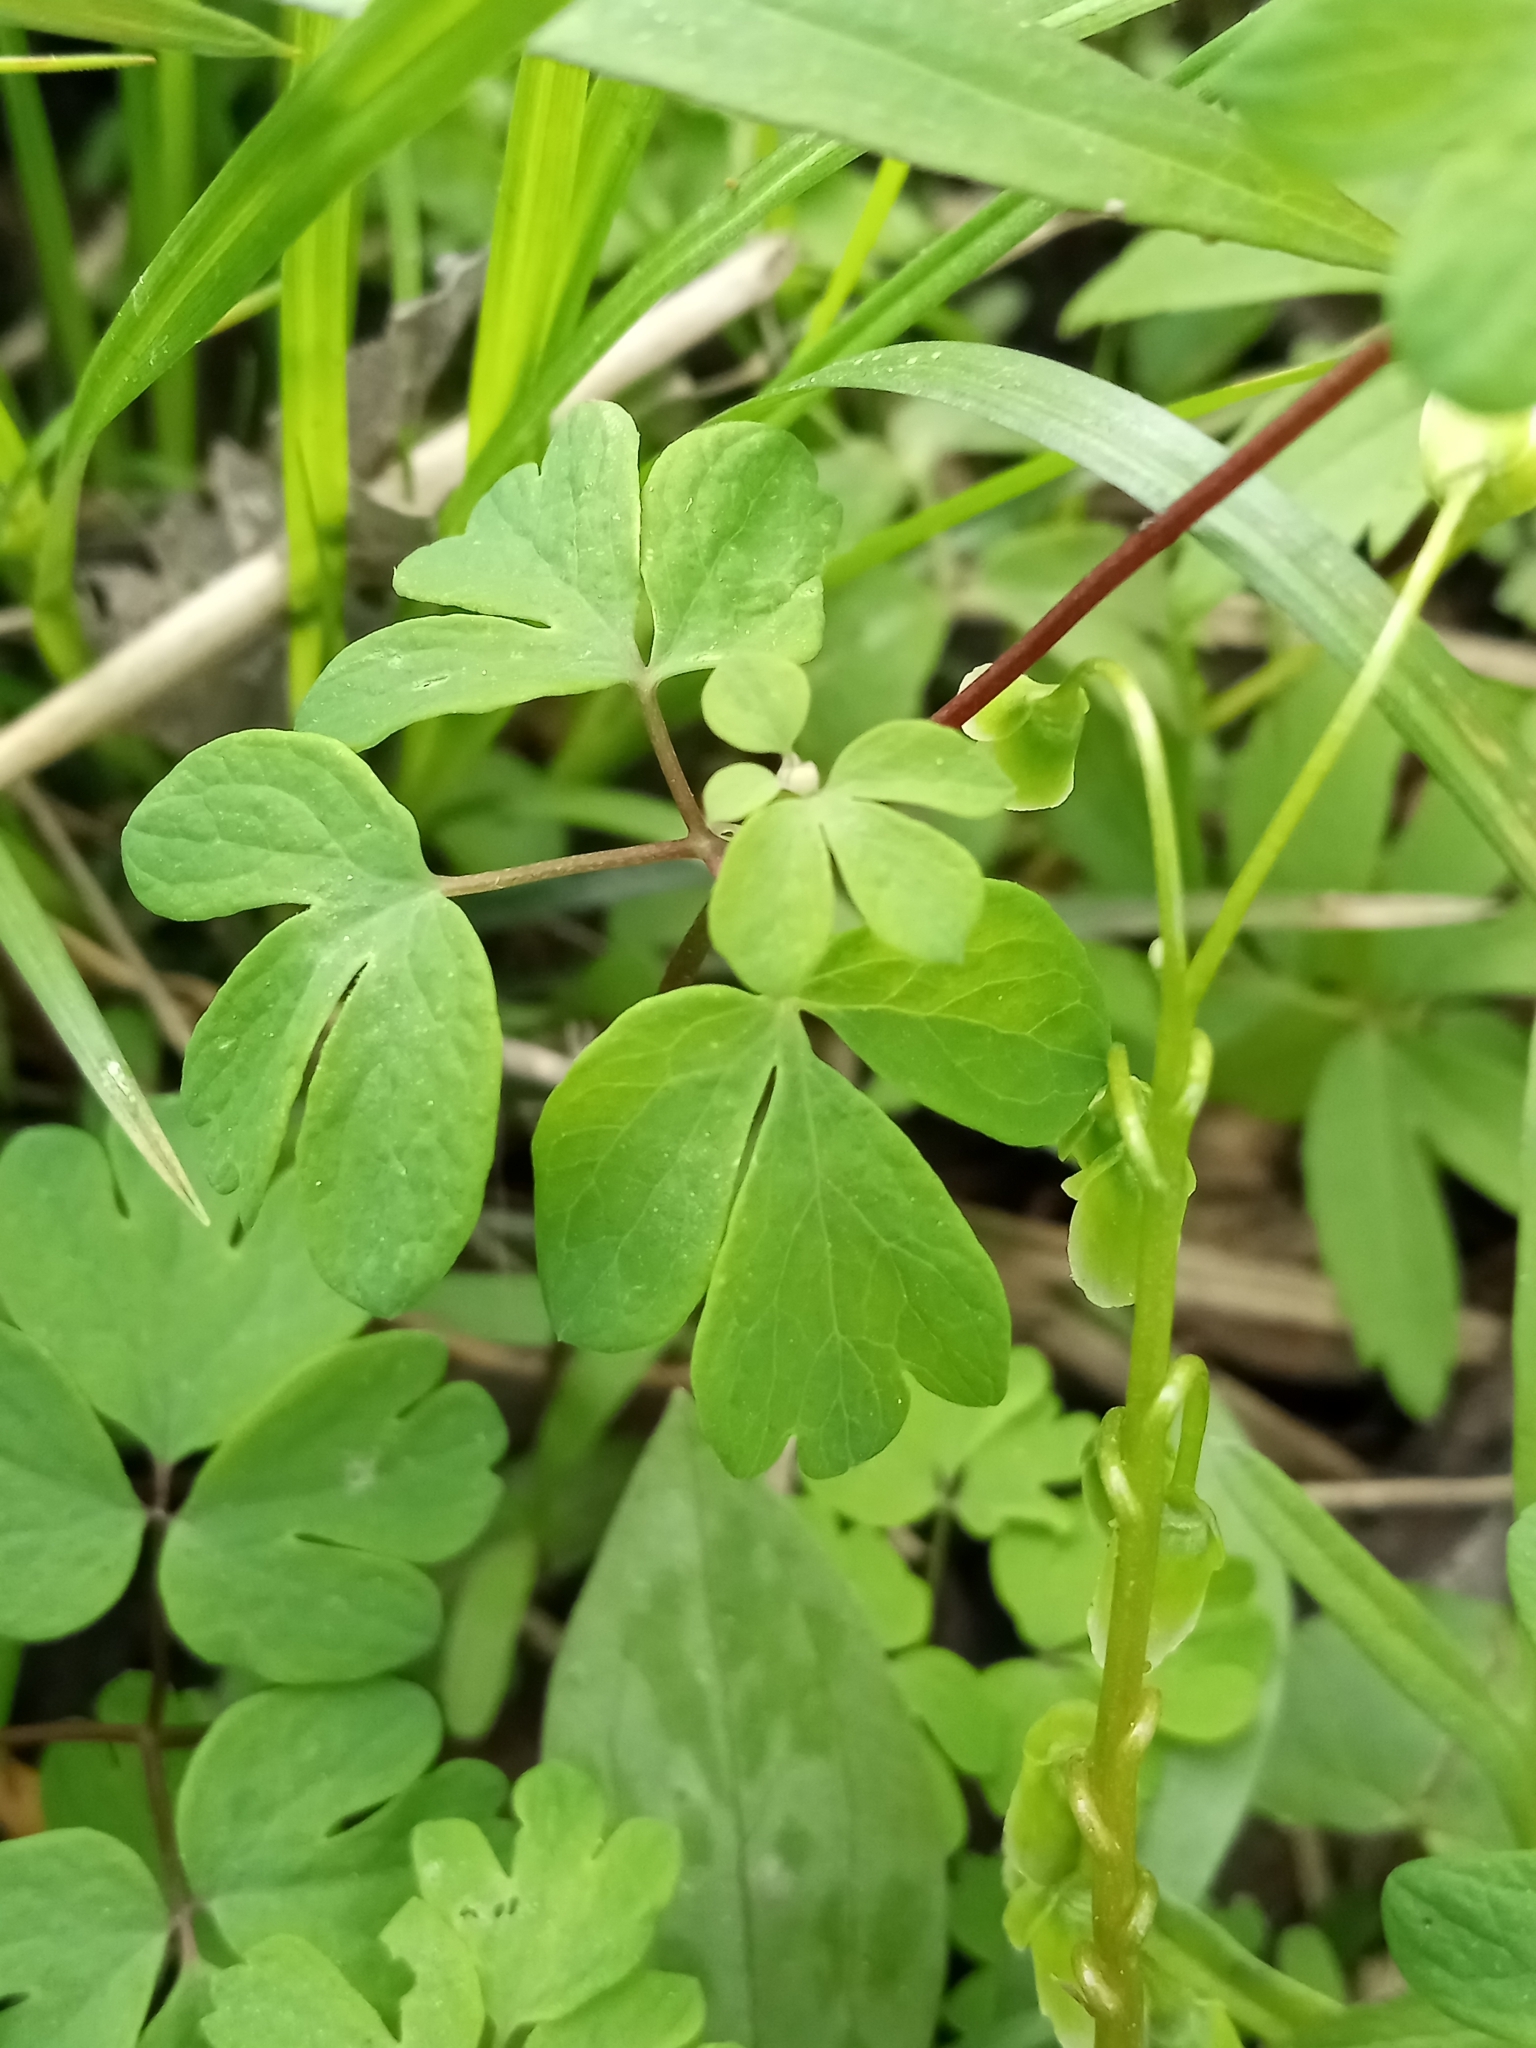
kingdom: Plantae
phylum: Tracheophyta
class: Magnoliopsida
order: Ranunculales
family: Ranunculaceae
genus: Enemion
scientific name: Enemion biternatum
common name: Eastern false rue-anemone
